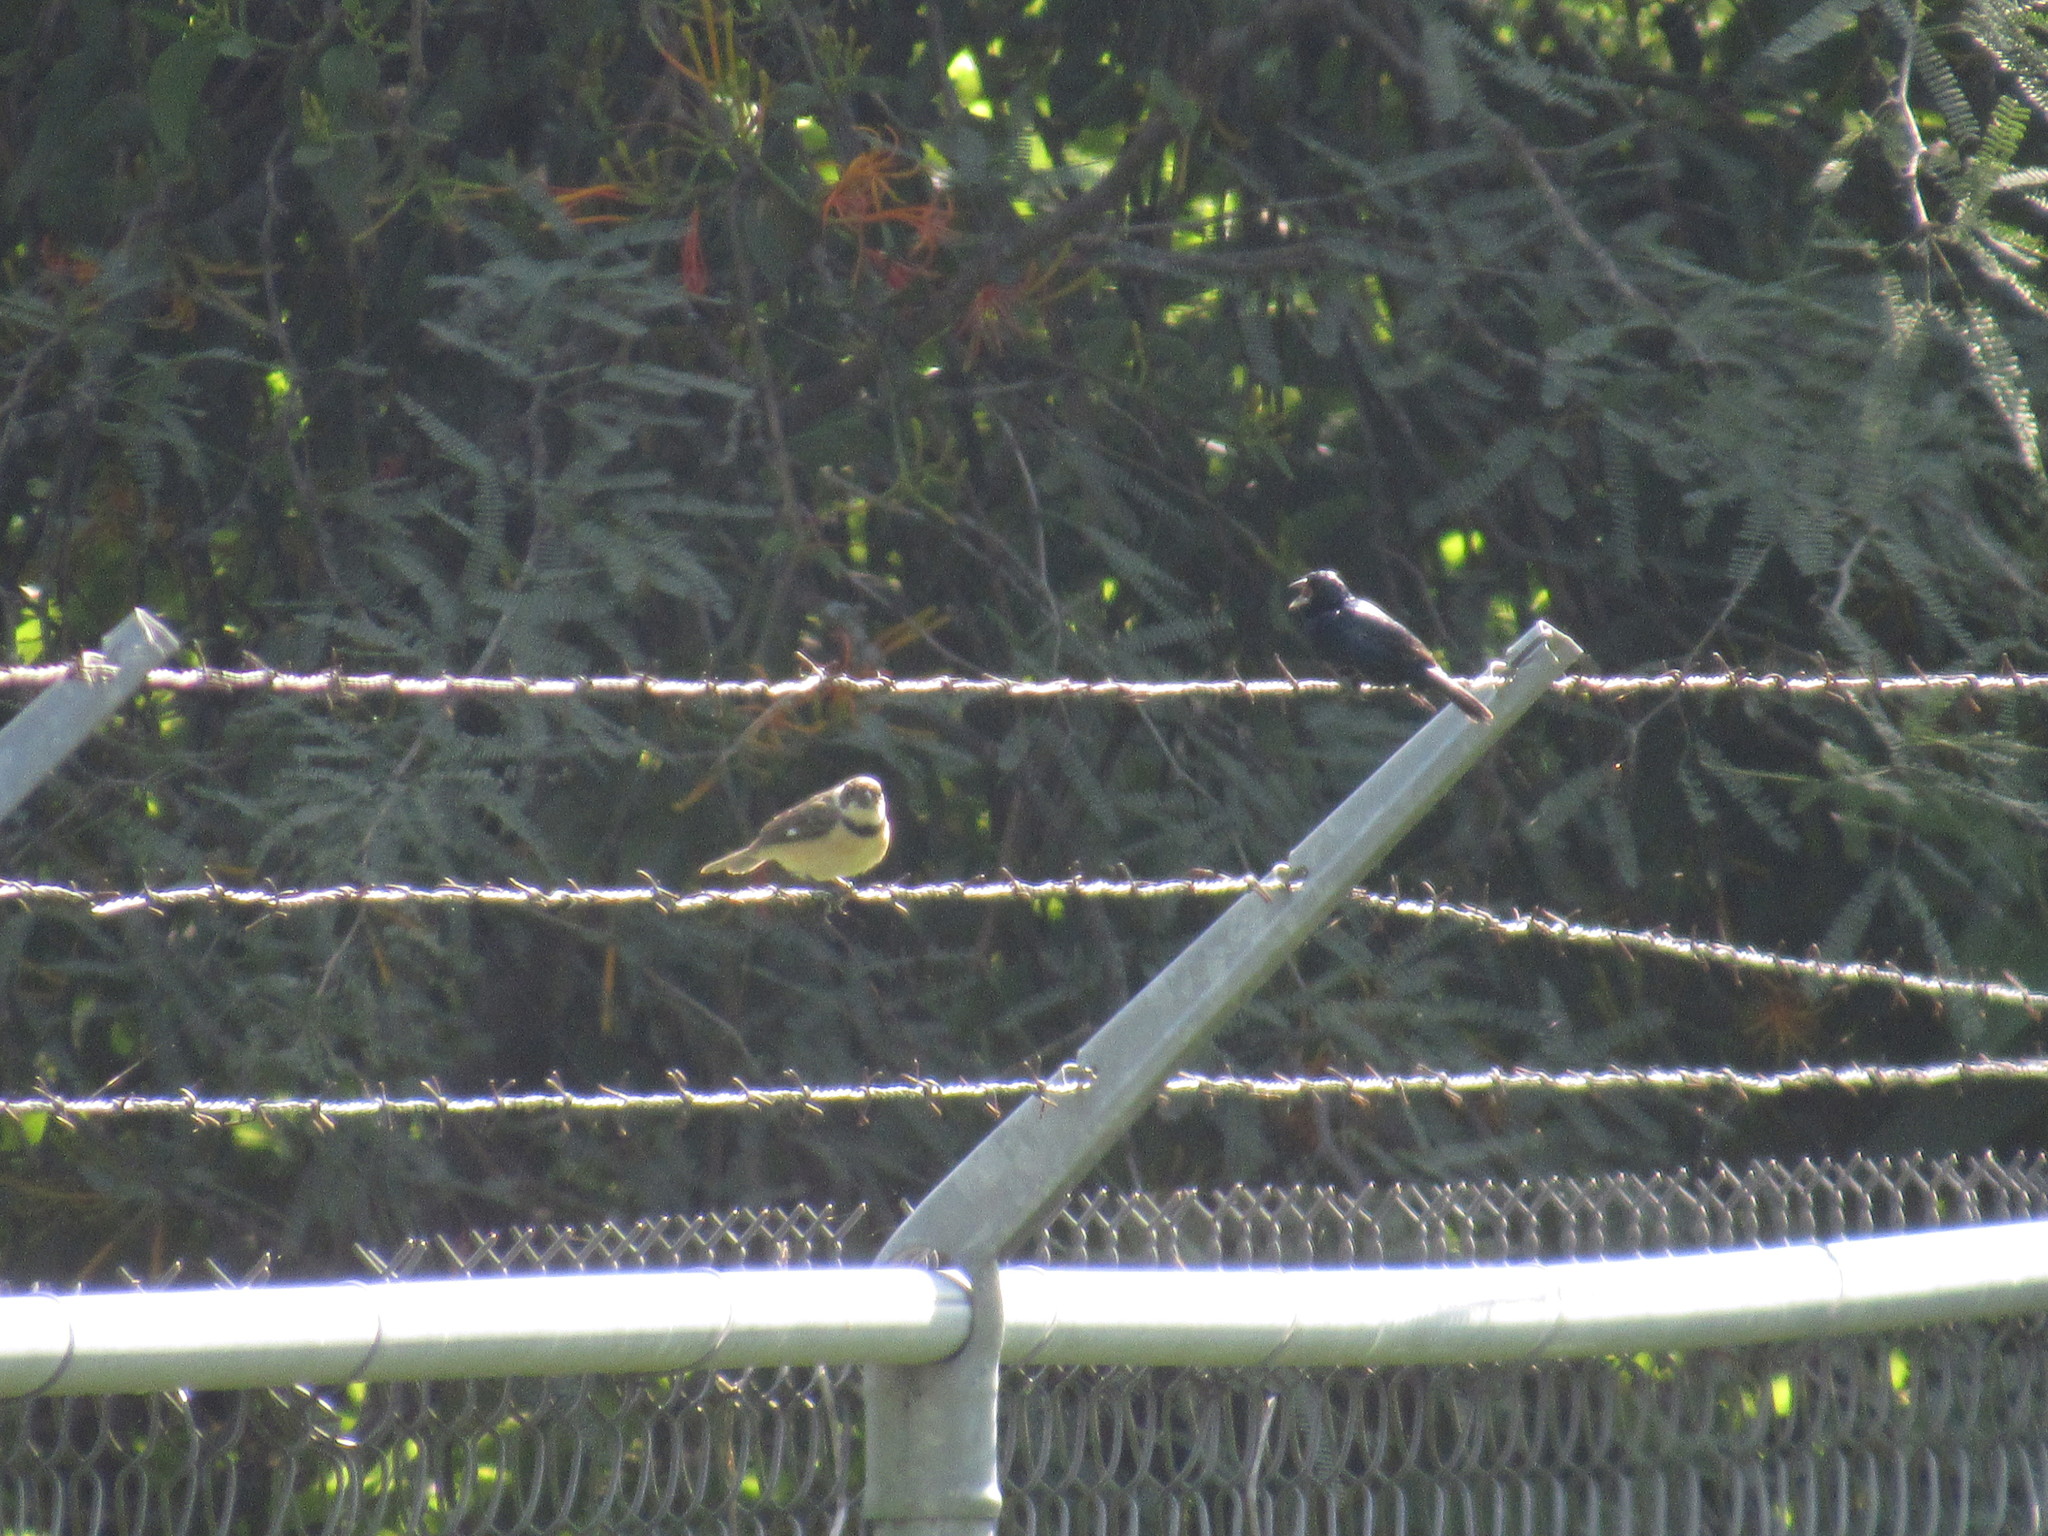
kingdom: Animalia
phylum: Chordata
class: Aves
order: Passeriformes
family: Thraupidae
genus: Volatinia
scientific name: Volatinia jacarina
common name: Blue-black grassquit
